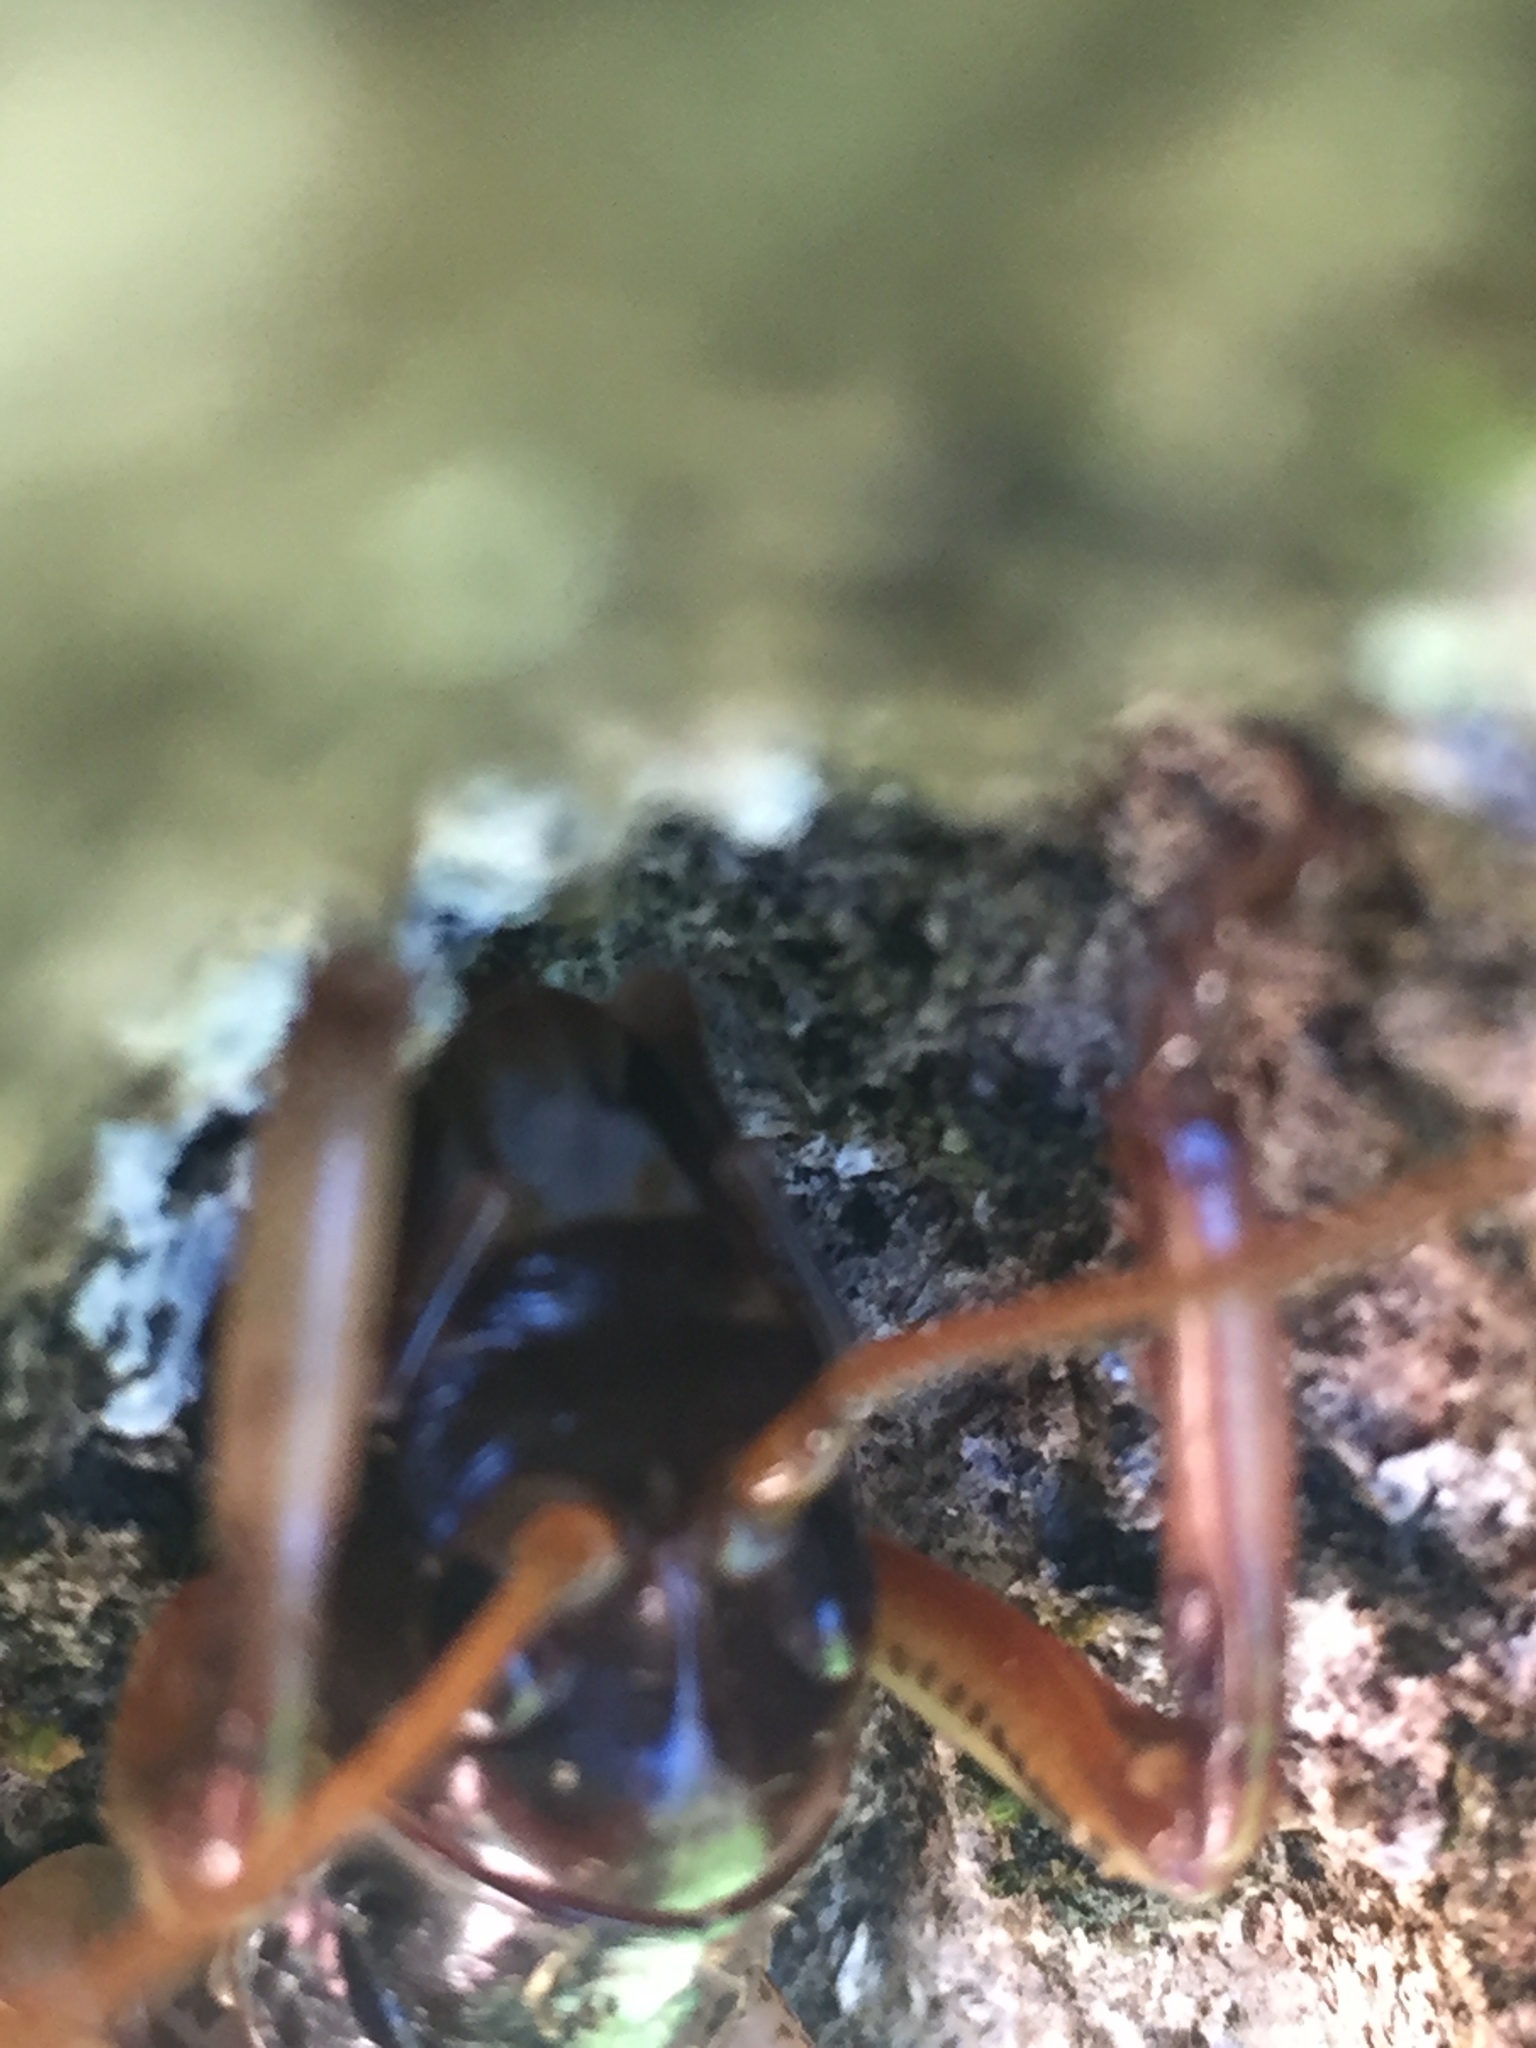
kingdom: Animalia
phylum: Arthropoda
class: Insecta
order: Orthoptera
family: Anostostomatidae
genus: Hemideina
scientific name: Hemideina crassidens
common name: Wellington tree weta
